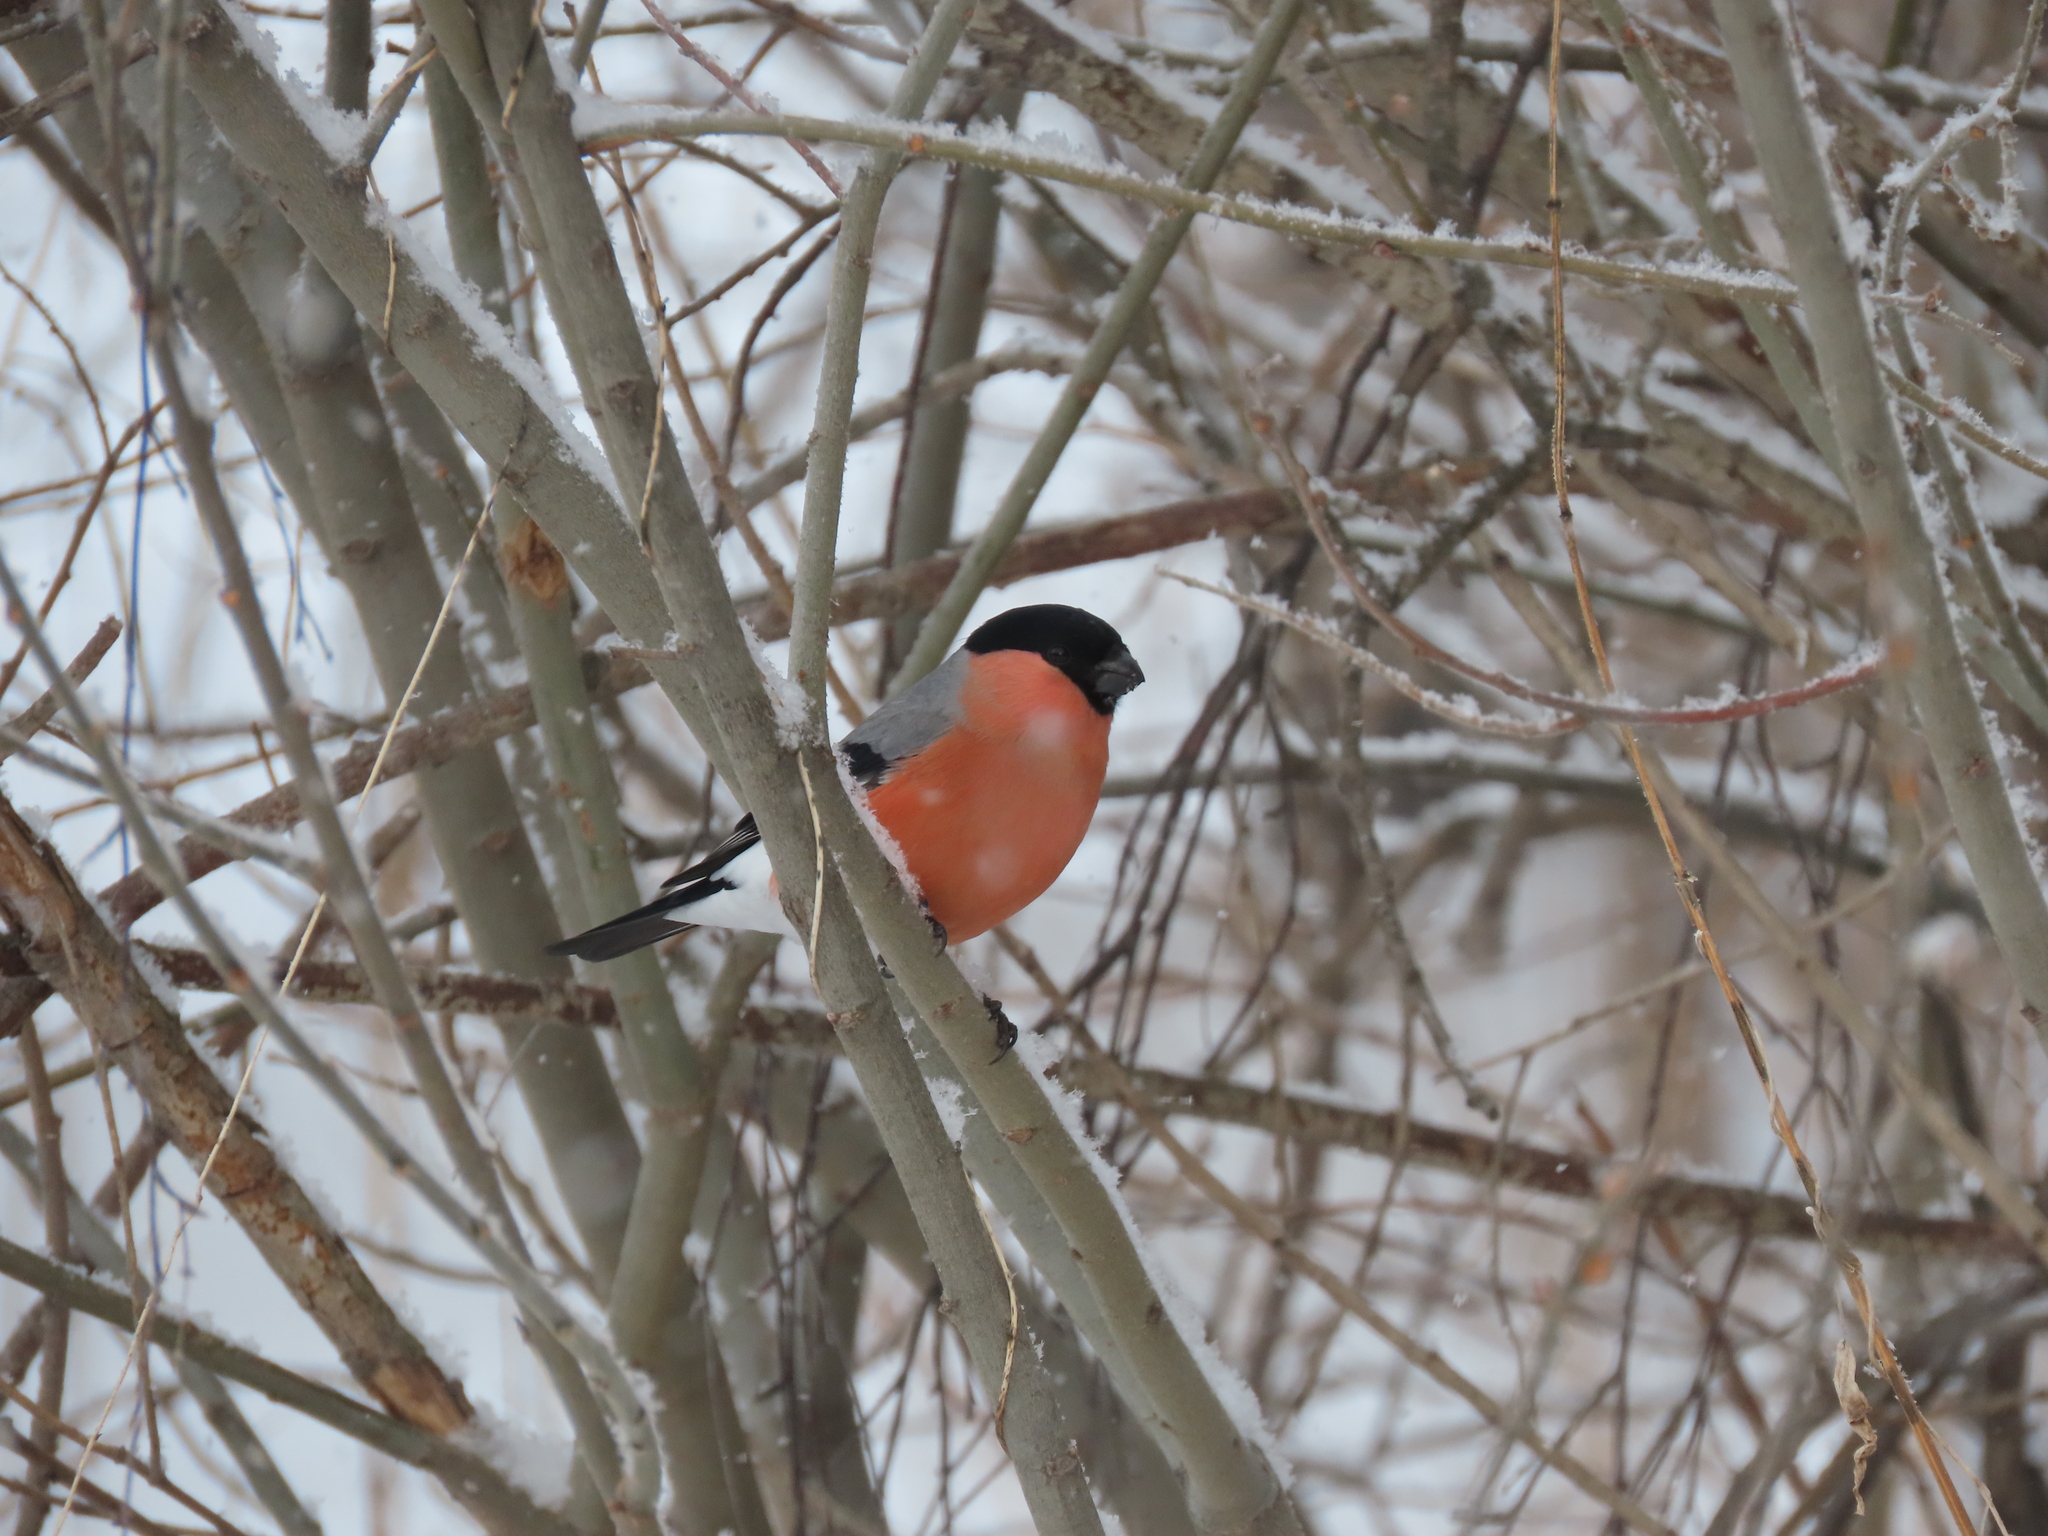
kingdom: Animalia
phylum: Chordata
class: Aves
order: Passeriformes
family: Fringillidae
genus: Pyrrhula
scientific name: Pyrrhula pyrrhula
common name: Eurasian bullfinch
